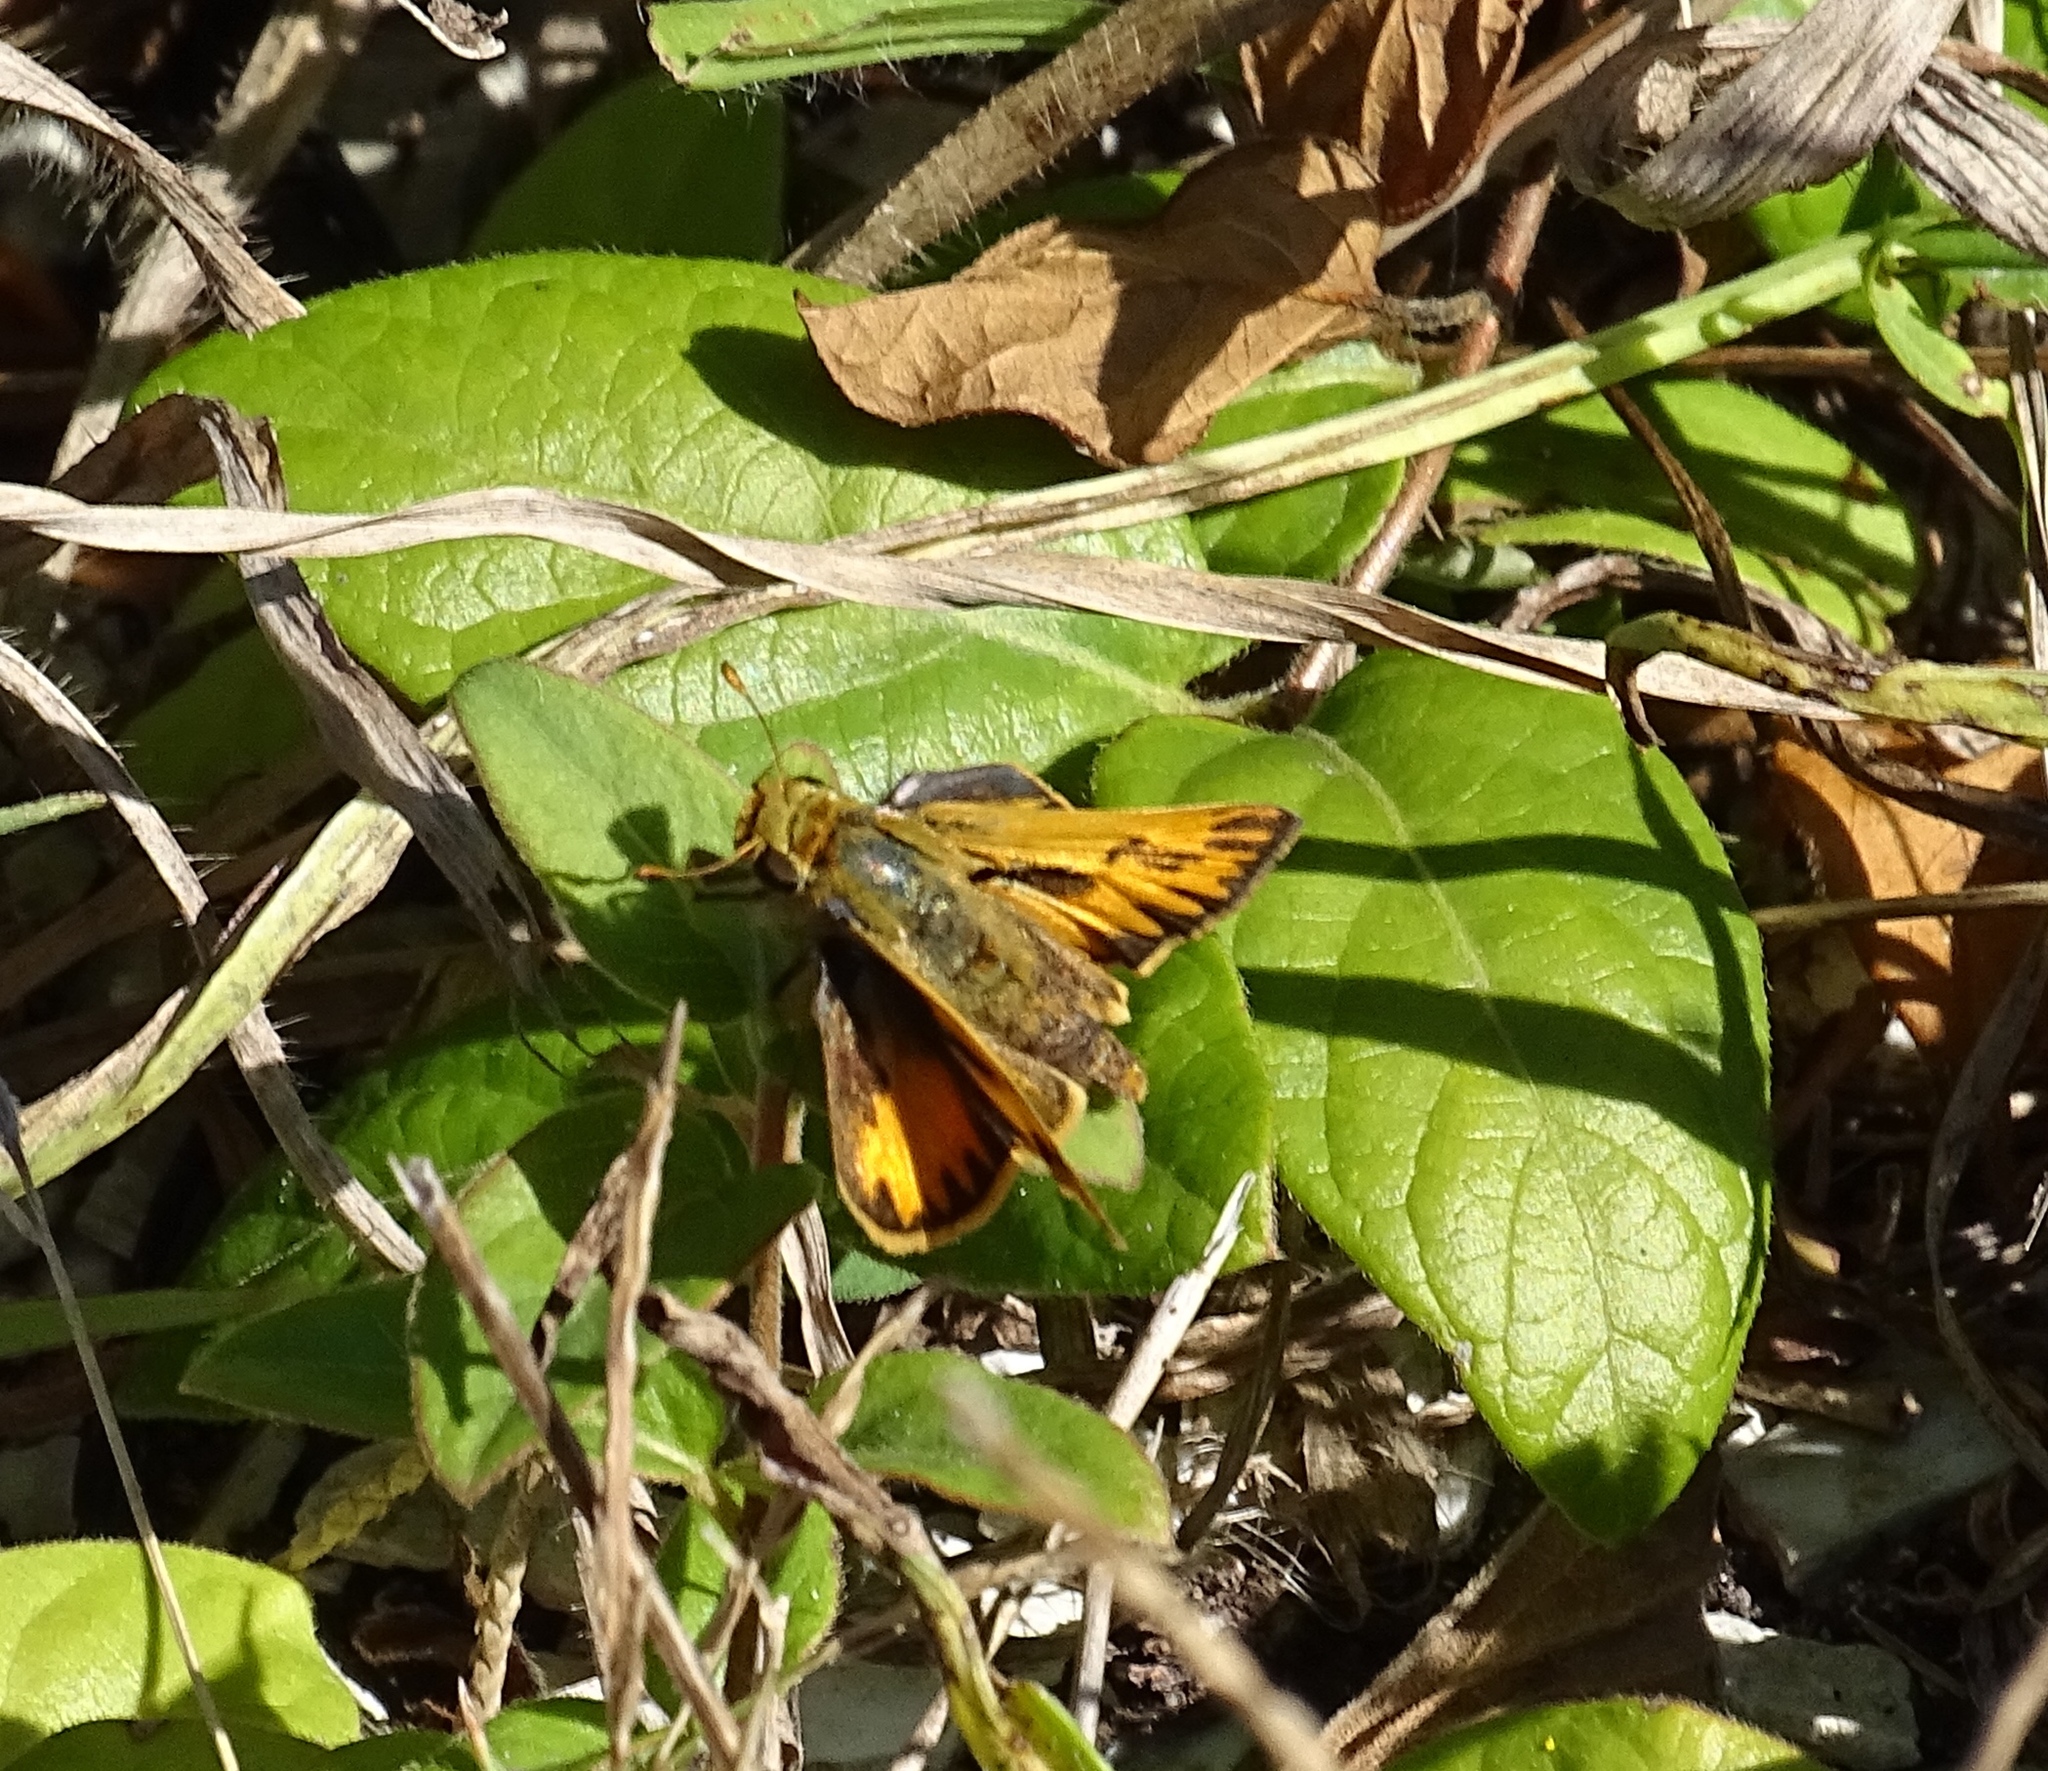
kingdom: Animalia
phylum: Arthropoda
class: Insecta
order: Lepidoptera
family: Hesperiidae
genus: Hylephila
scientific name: Hylephila phyleus
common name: Fiery skipper
